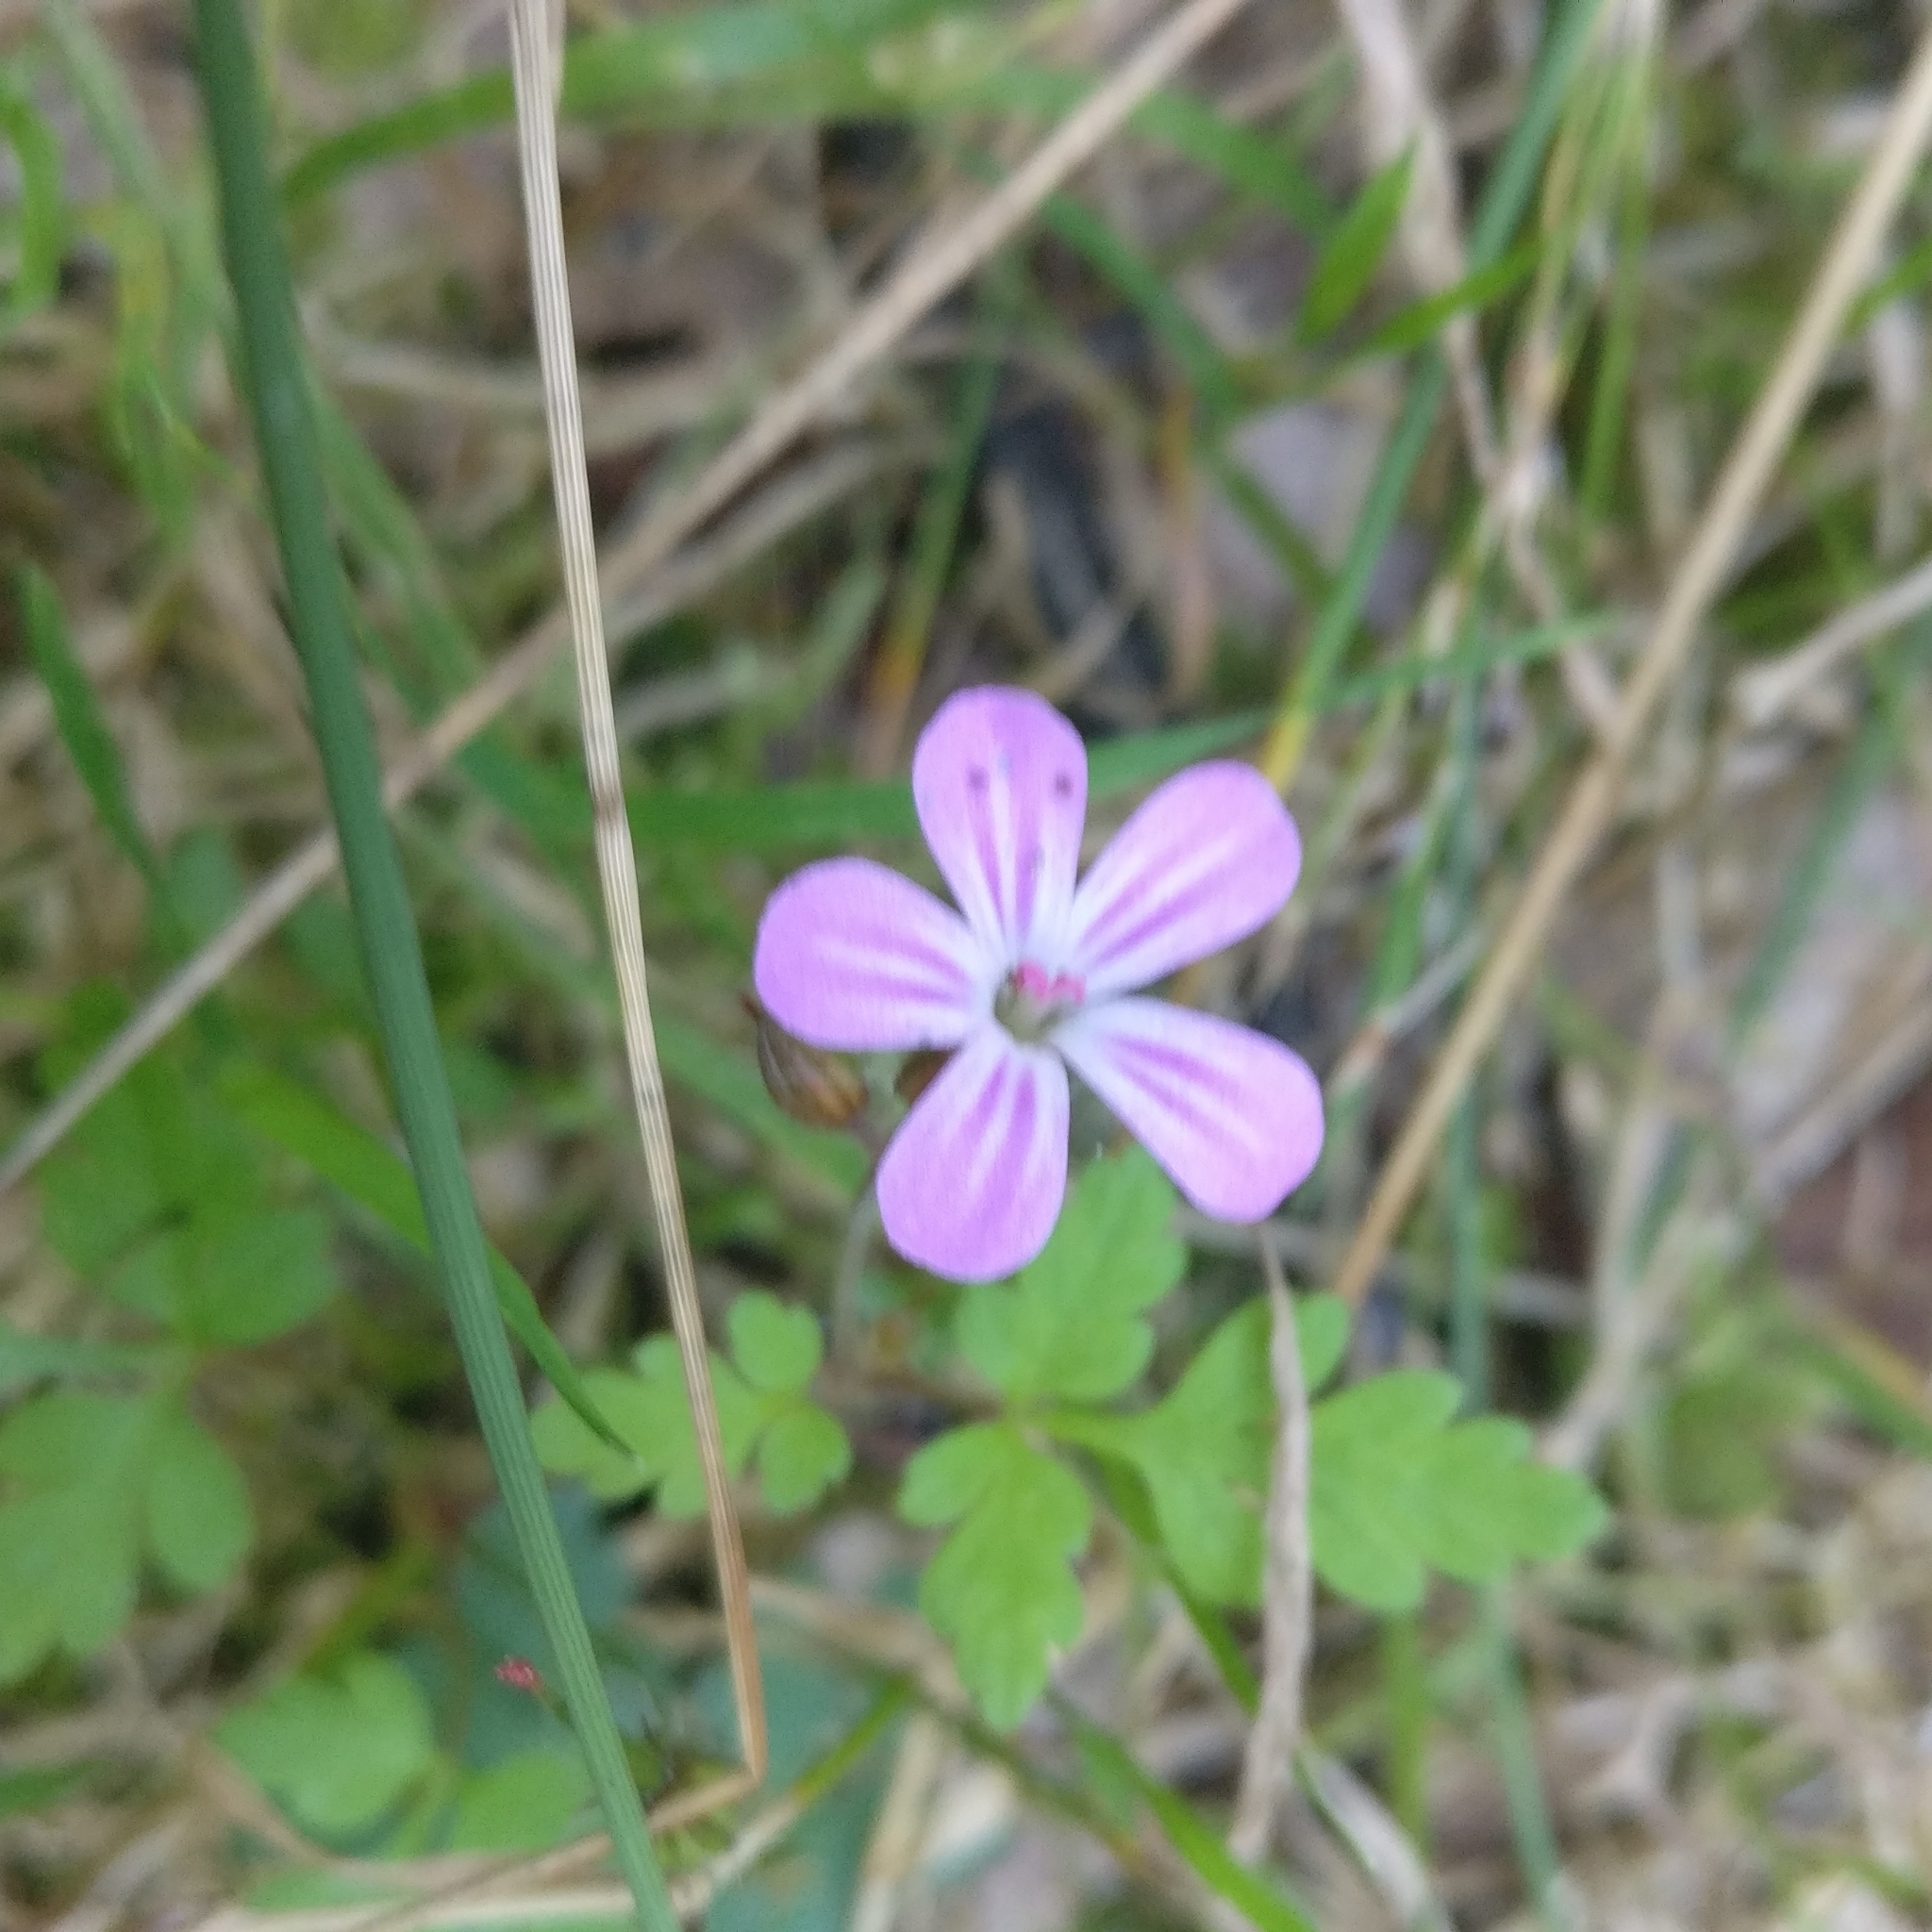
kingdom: Plantae
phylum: Tracheophyta
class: Magnoliopsida
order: Geraniales
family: Geraniaceae
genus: Geranium
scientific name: Geranium robertianum
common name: Herb-robert
